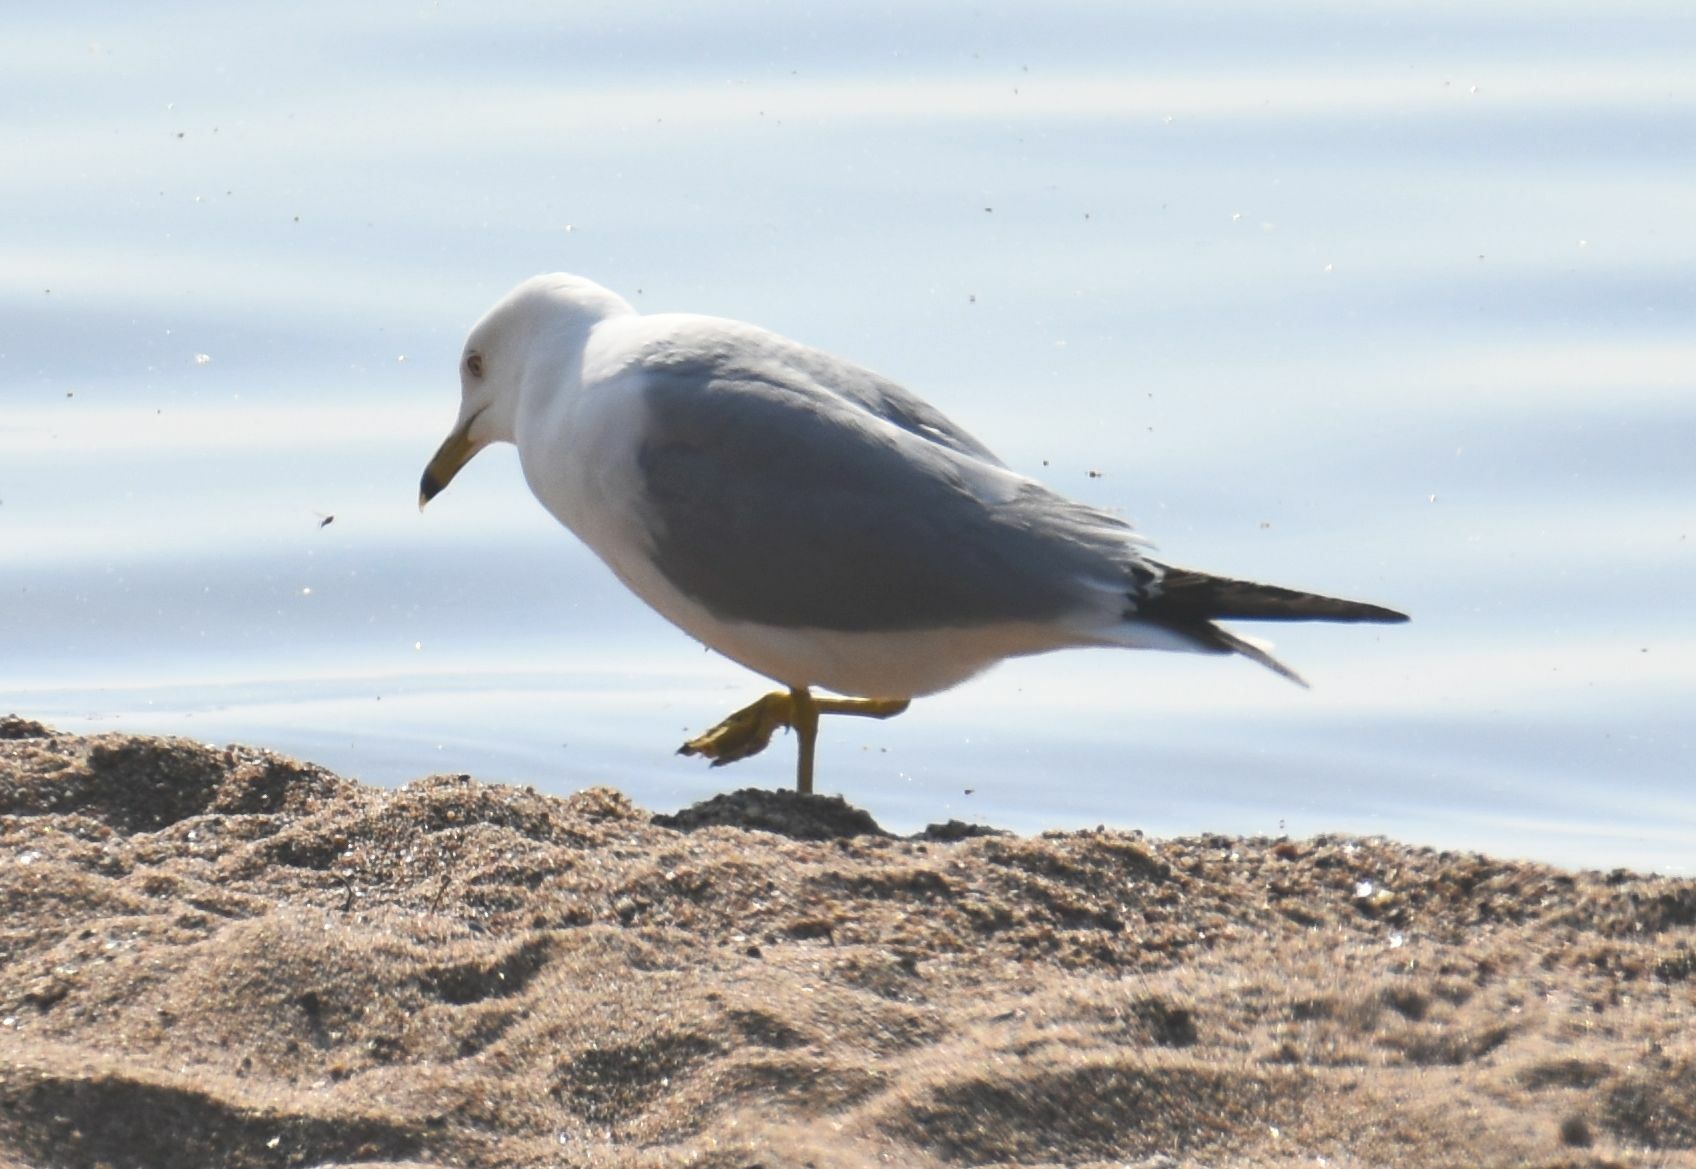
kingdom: Animalia
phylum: Chordata
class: Aves
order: Charadriiformes
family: Laridae
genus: Larus
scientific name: Larus delawarensis
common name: Ring-billed gull
